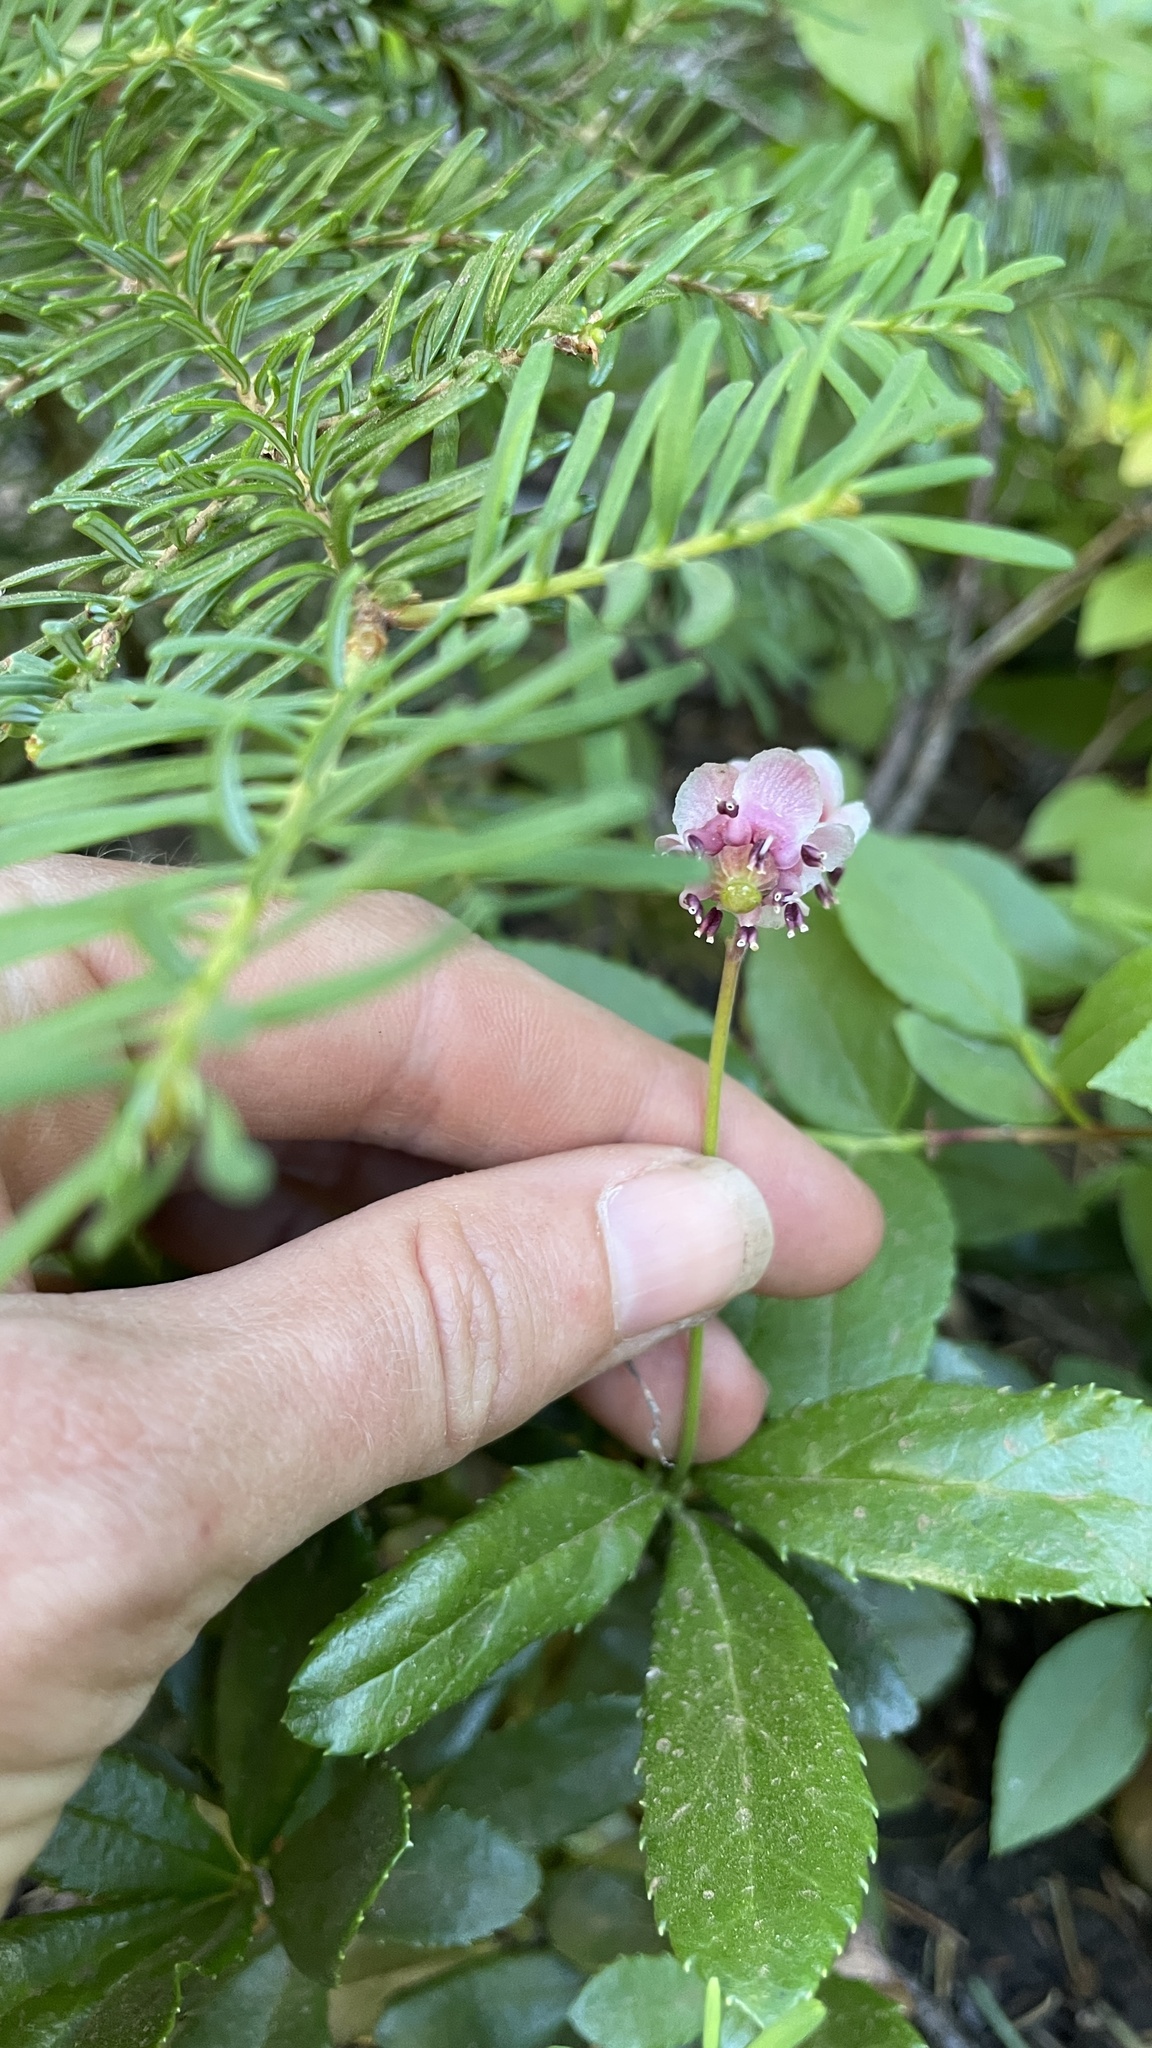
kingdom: Plantae
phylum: Tracheophyta
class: Magnoliopsida
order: Ericales
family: Ericaceae
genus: Chimaphila
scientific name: Chimaphila umbellata
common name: Pipsissewa
